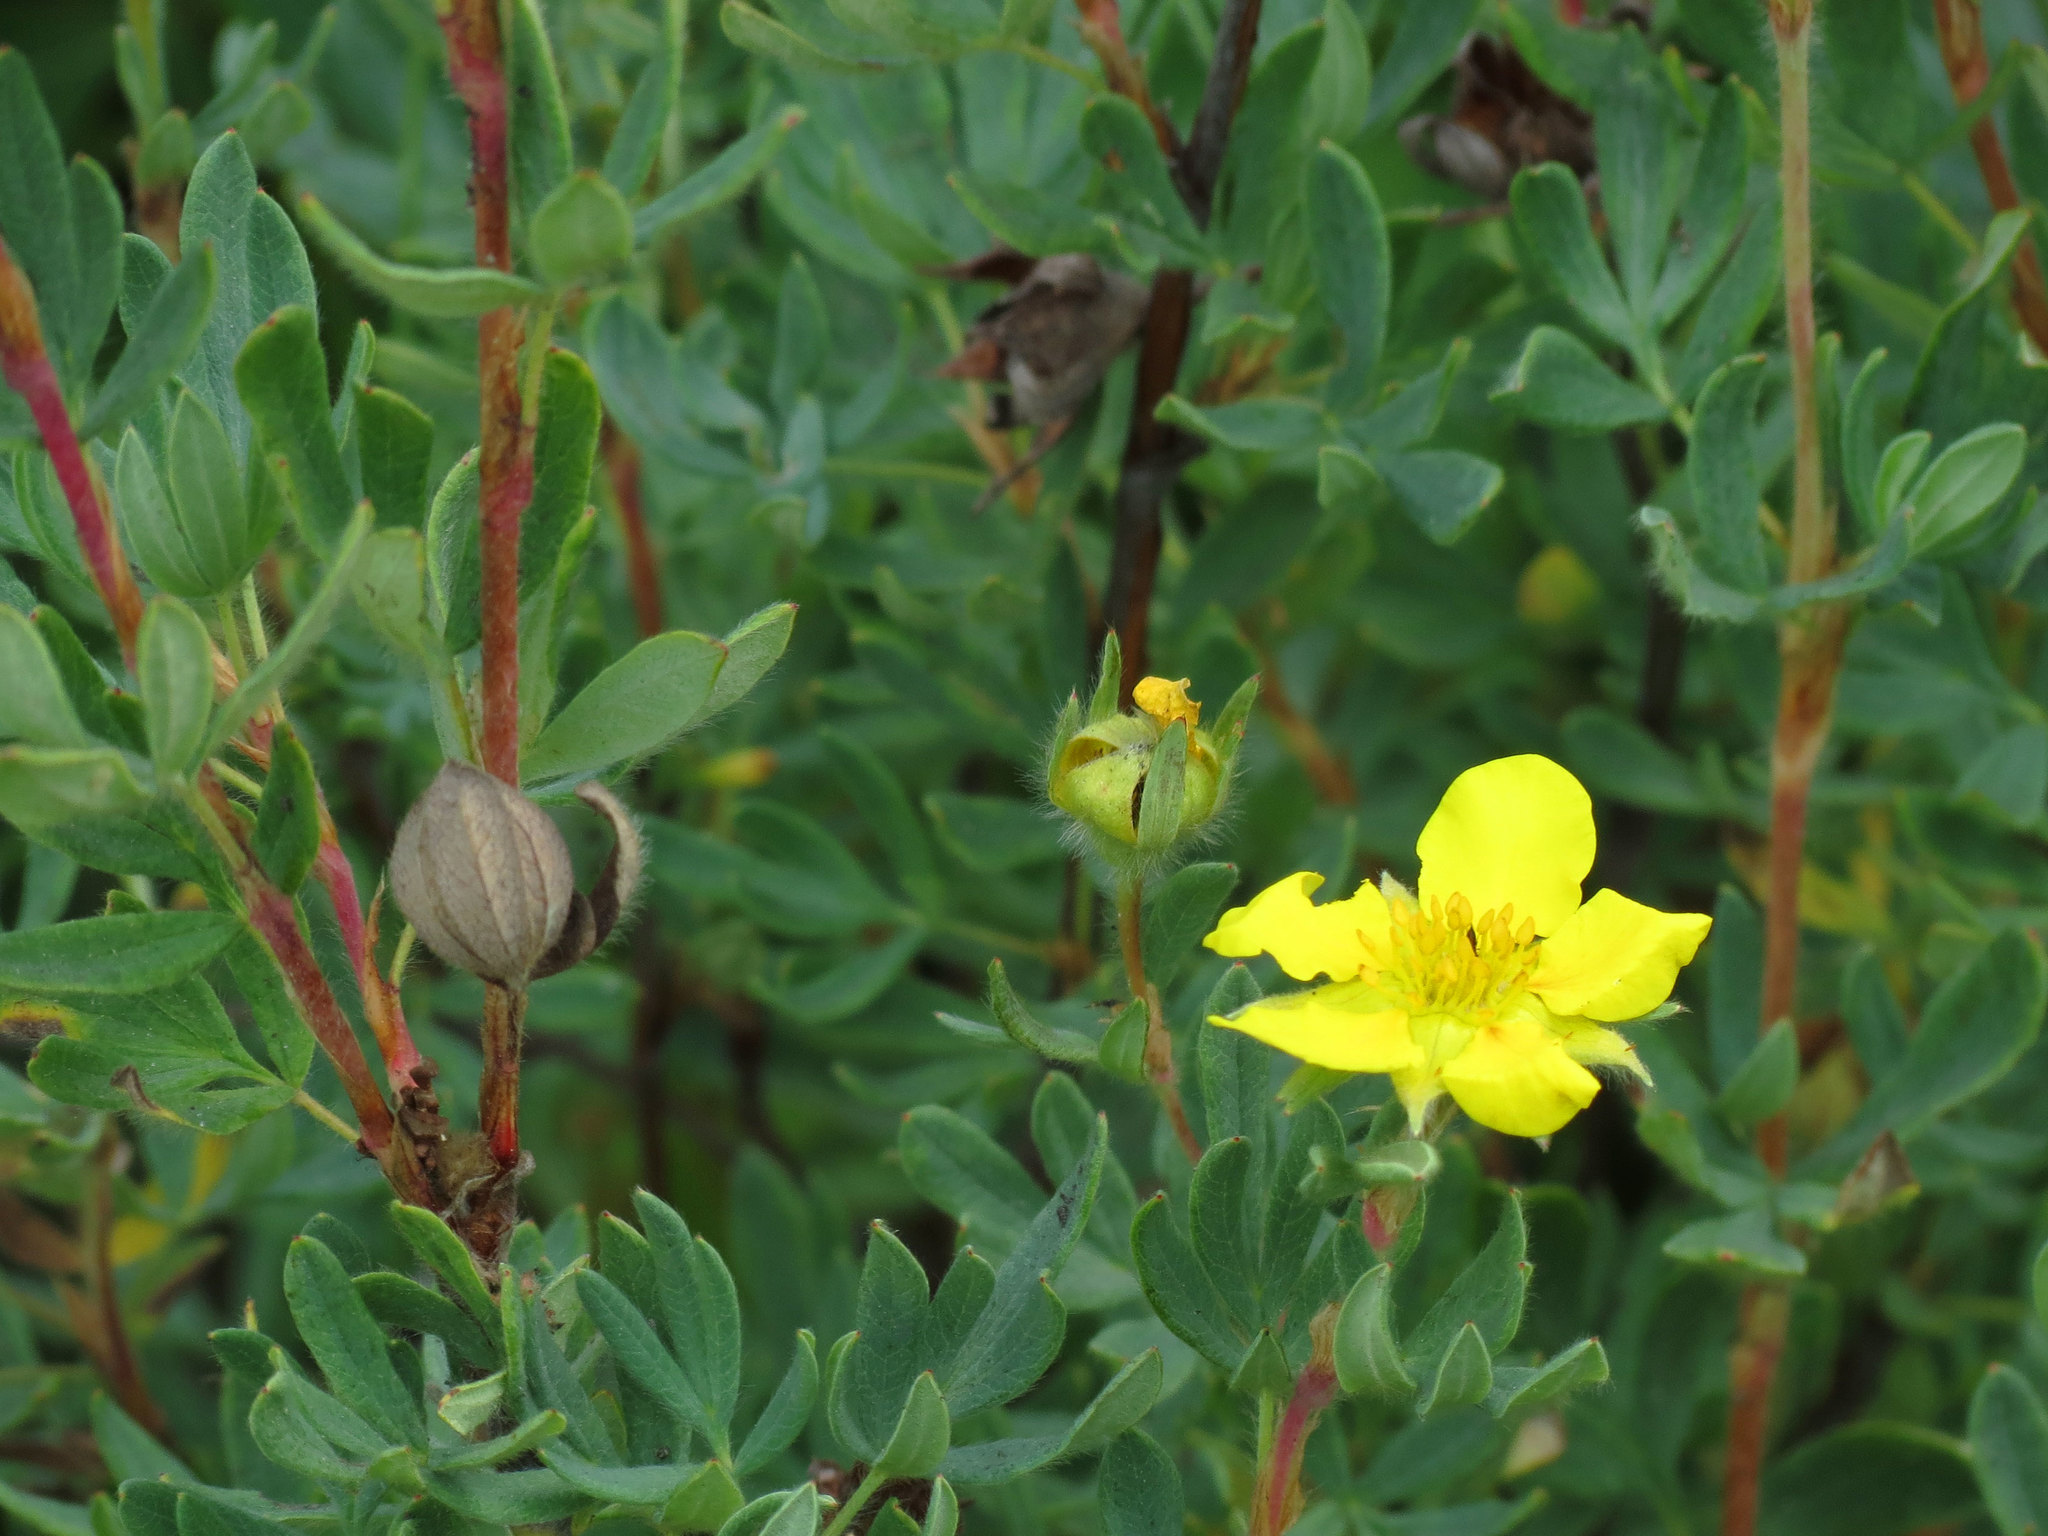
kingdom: Plantae
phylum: Tracheophyta
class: Magnoliopsida
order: Rosales
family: Rosaceae
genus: Dasiphora
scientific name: Dasiphora fruticosa
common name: Shrubby cinquefoil
